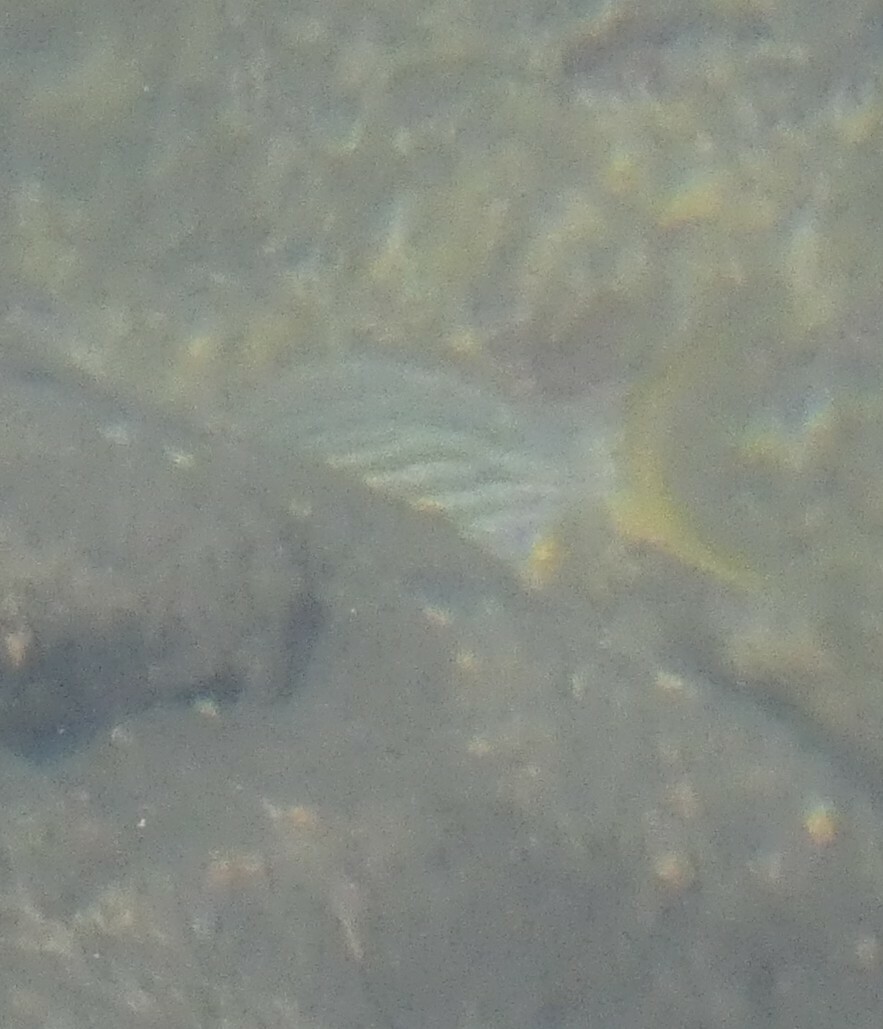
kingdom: Animalia
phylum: Chordata
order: Perciformes
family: Sparidae
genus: Sarpa
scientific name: Sarpa salpa
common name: Salema
